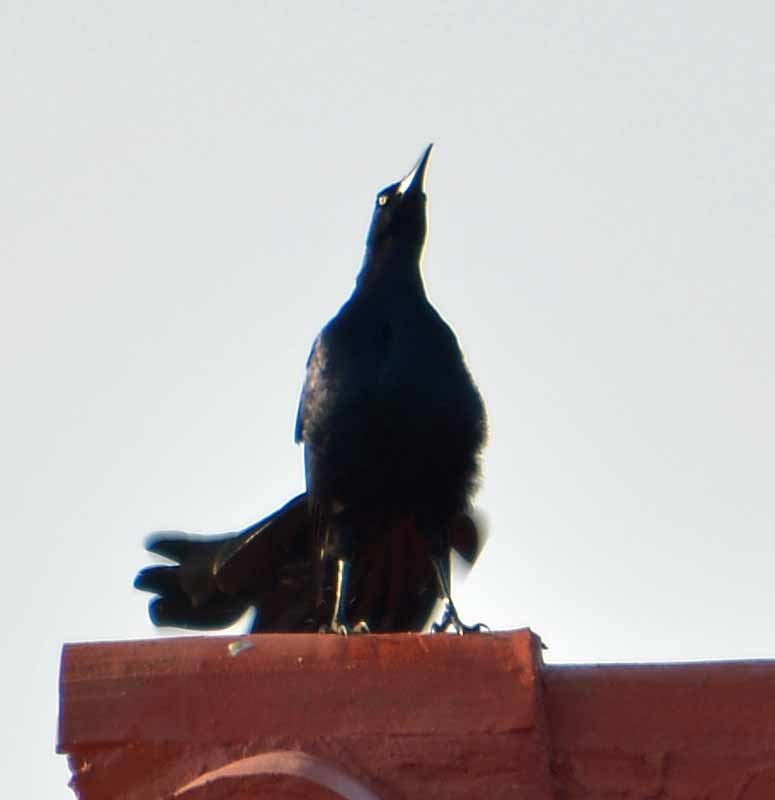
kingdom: Animalia
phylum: Chordata
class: Aves
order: Passeriformes
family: Icteridae
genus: Quiscalus
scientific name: Quiscalus mexicanus
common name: Great-tailed grackle
